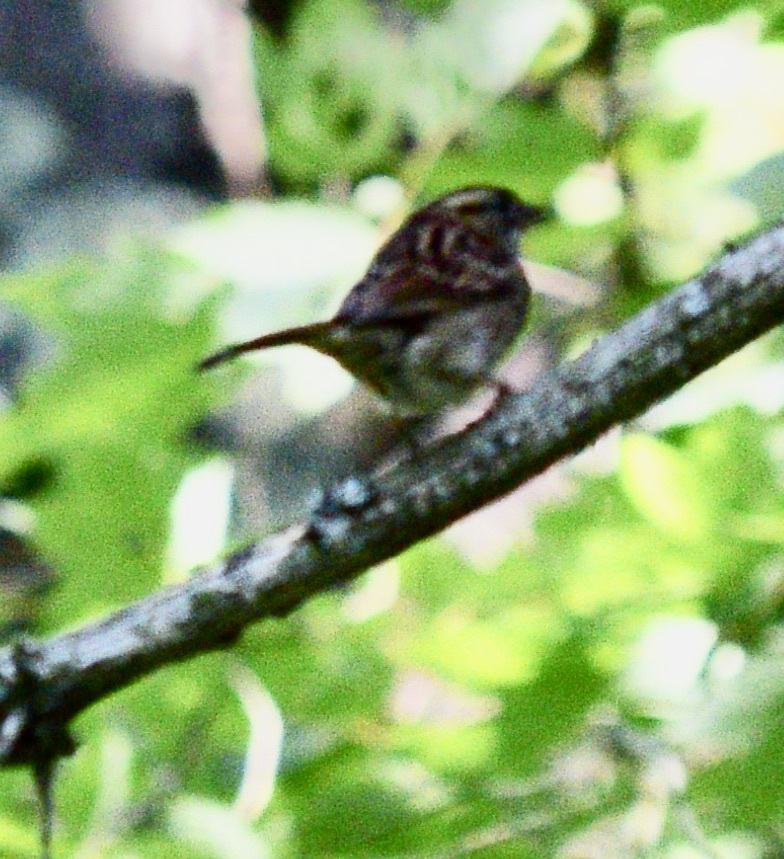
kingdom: Animalia
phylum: Chordata
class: Aves
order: Passeriformes
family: Passerellidae
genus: Zonotrichia
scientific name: Zonotrichia albicollis
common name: White-throated sparrow
